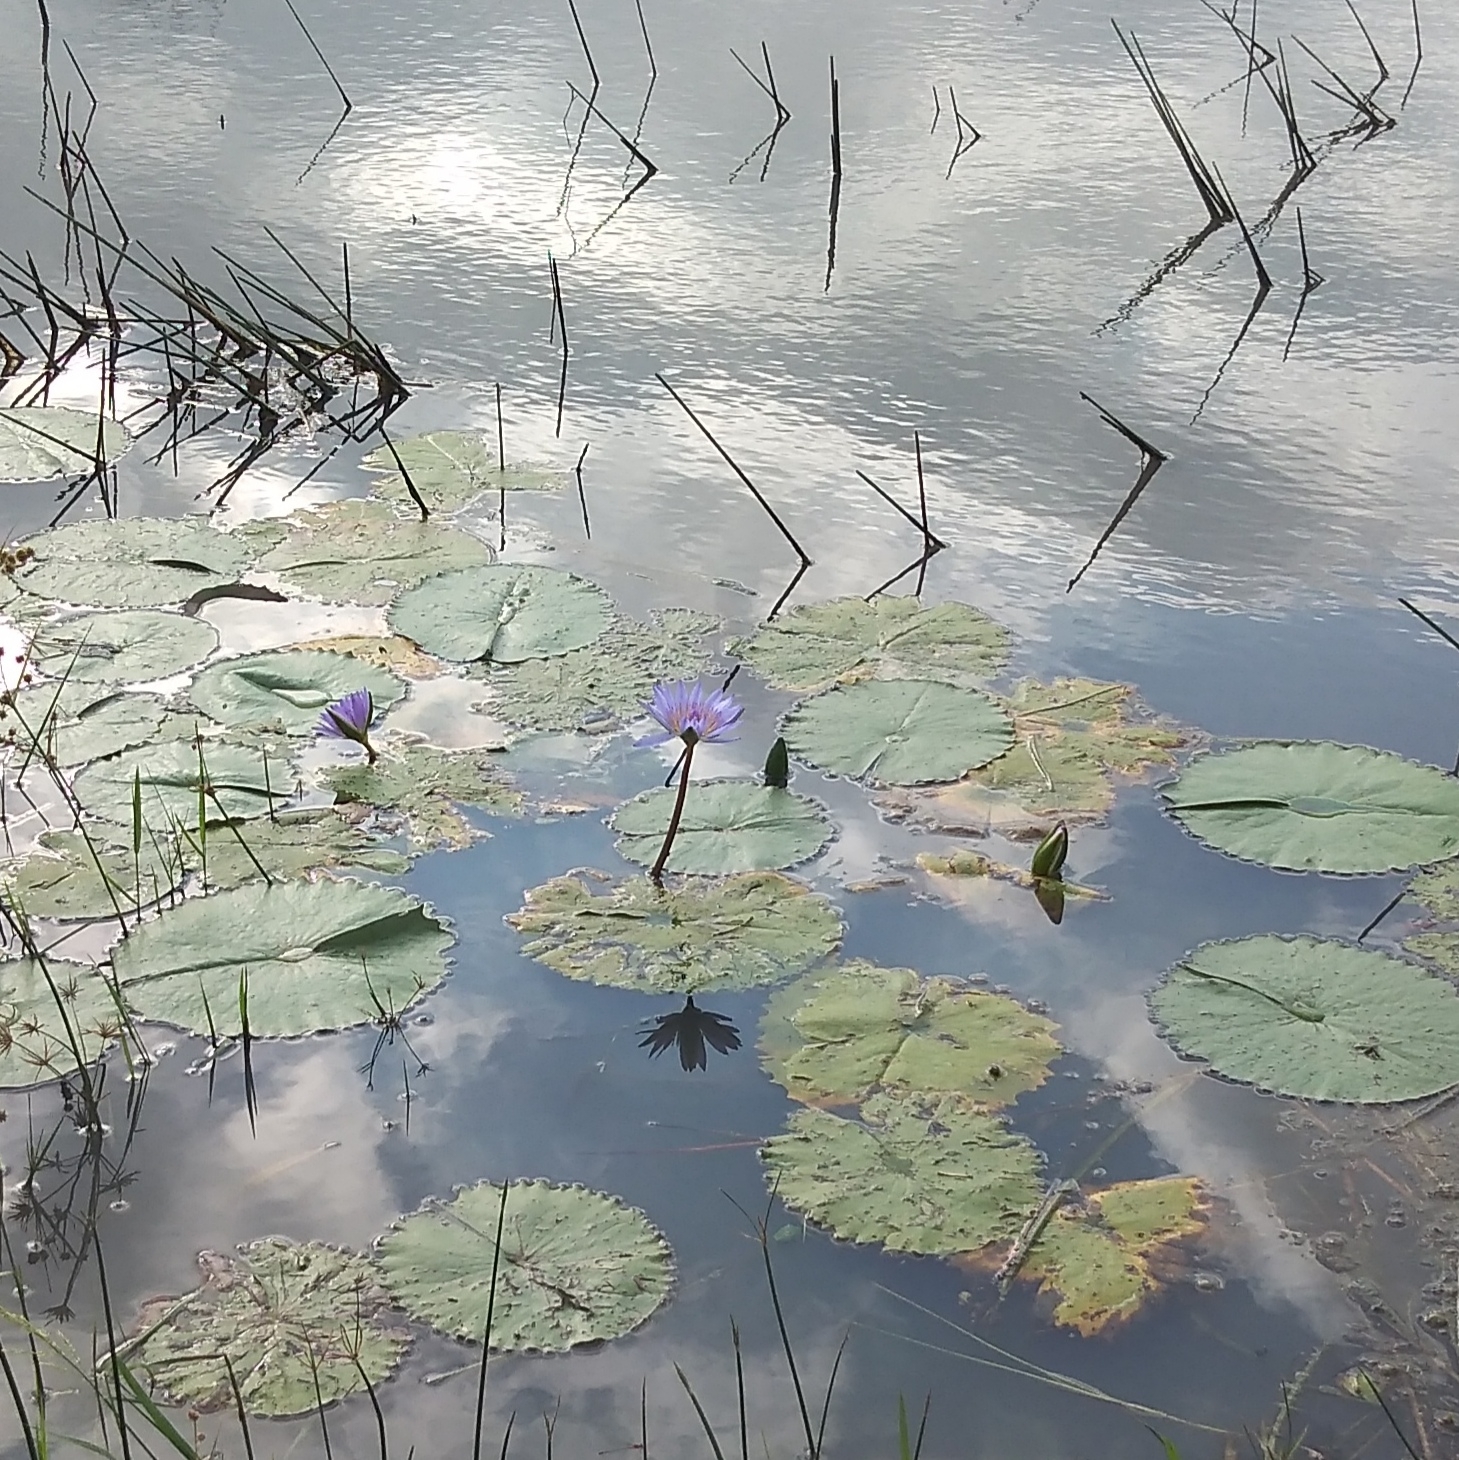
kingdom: Plantae
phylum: Tracheophyta
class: Magnoliopsida
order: Nymphaeales
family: Nymphaeaceae
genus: Nymphaea
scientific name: Nymphaea nouchali
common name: Blue lotus
